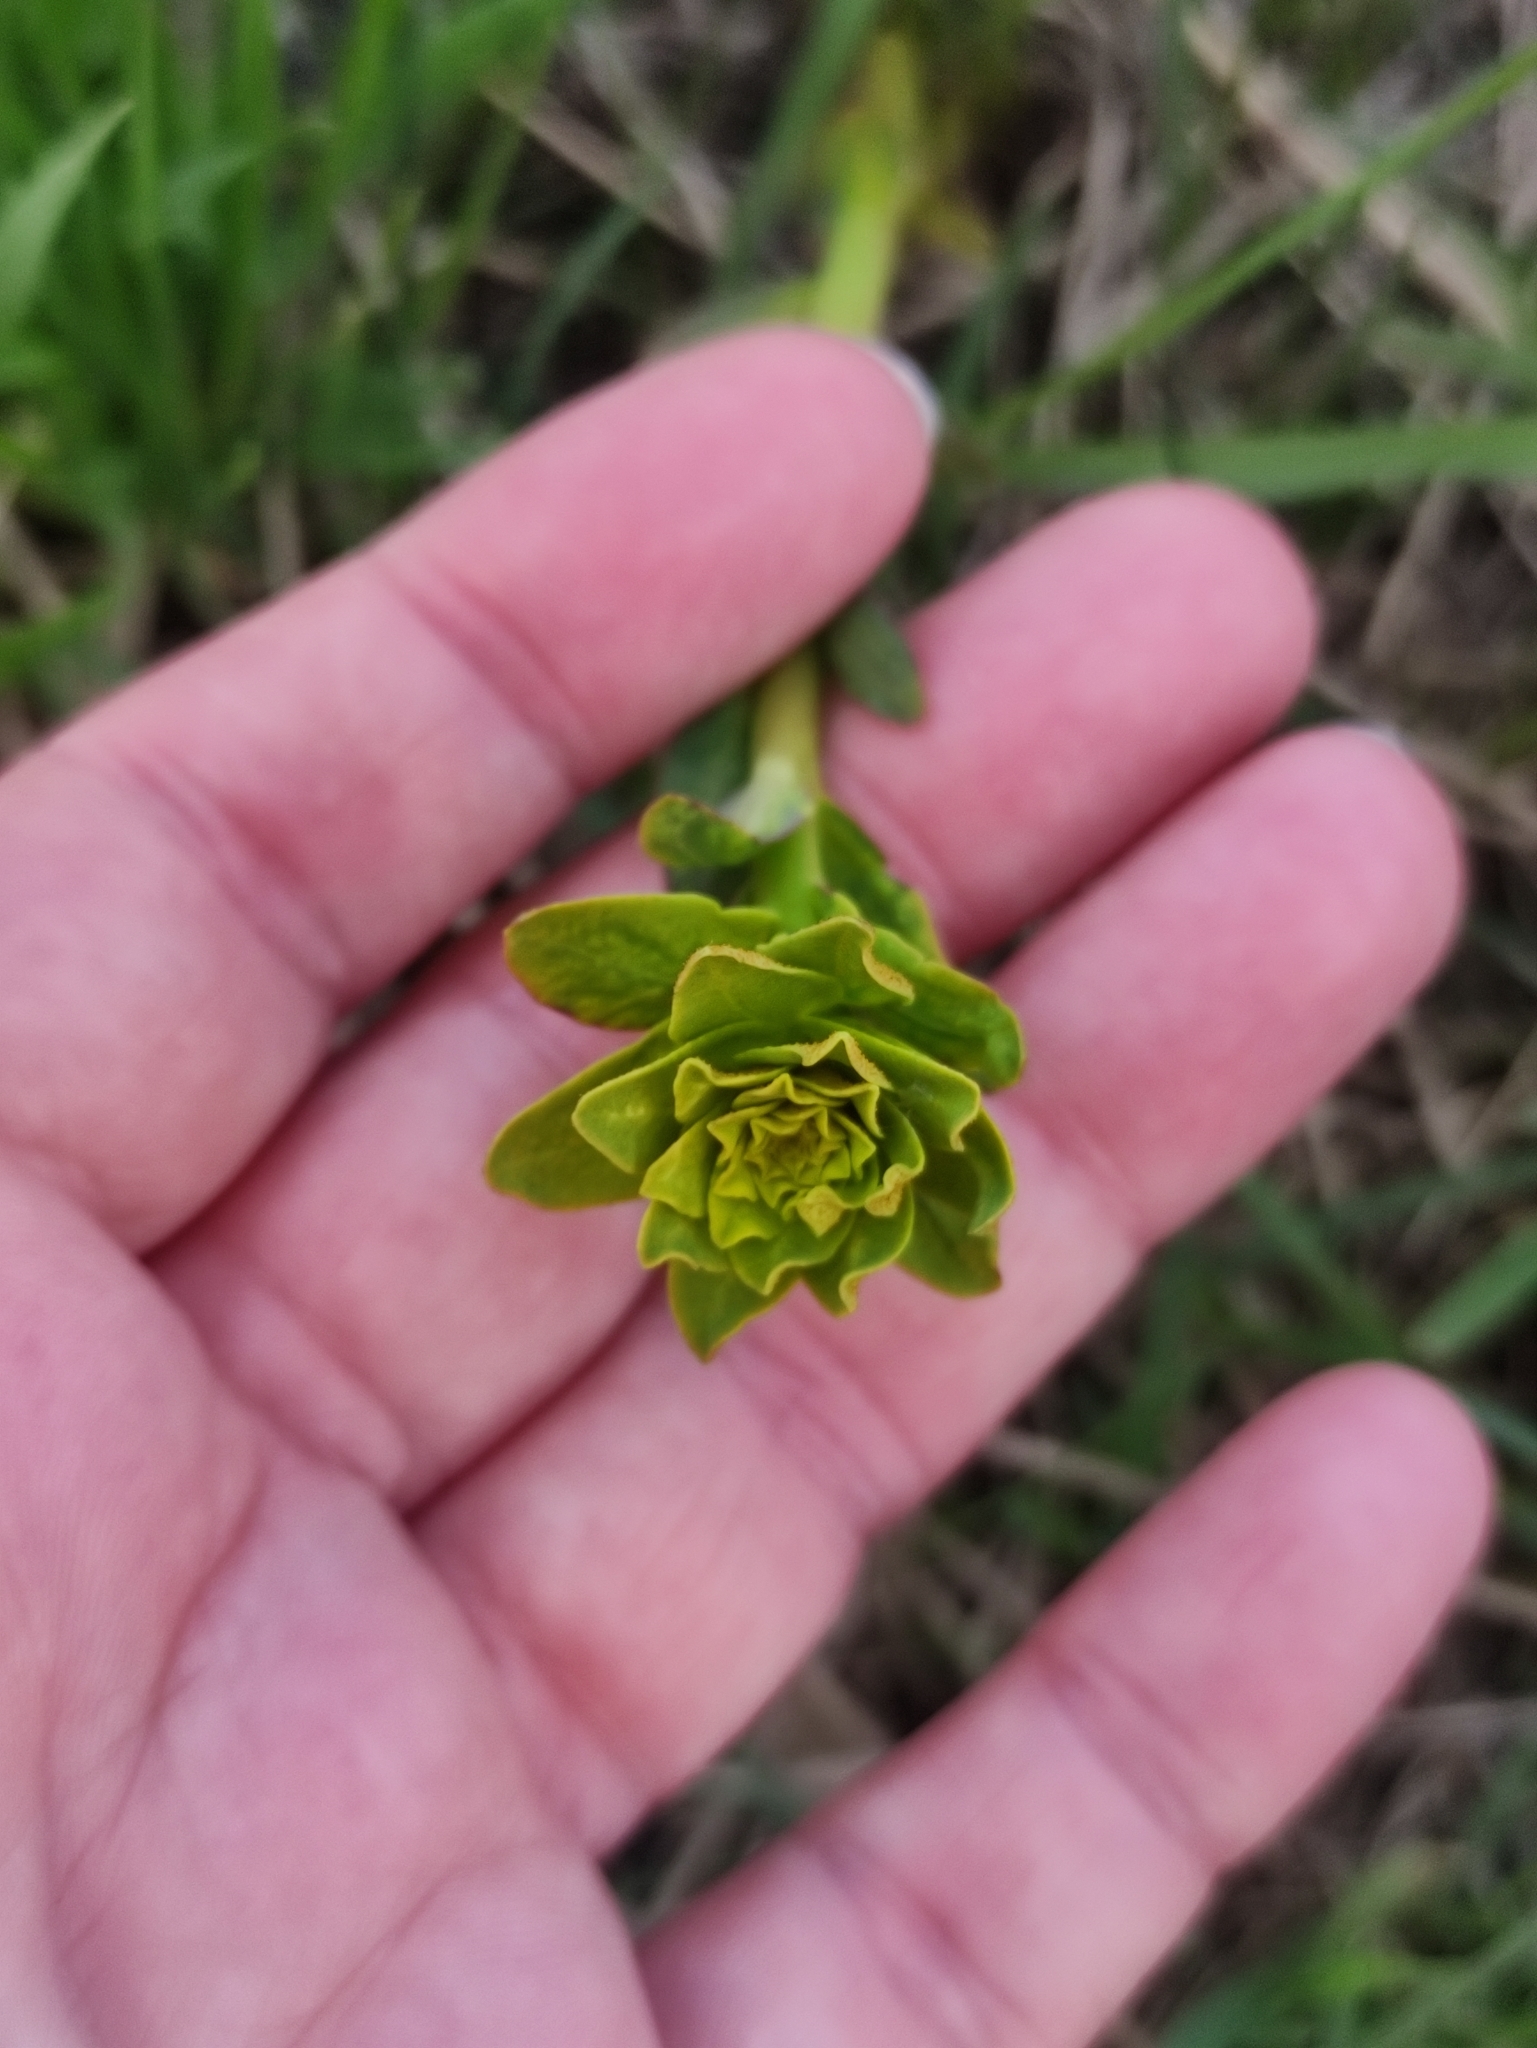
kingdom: Plantae
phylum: Tracheophyta
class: Magnoliopsida
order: Malpighiales
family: Euphorbiaceae
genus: Euphorbia
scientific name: Euphorbia virgata
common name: Leafy spurge
